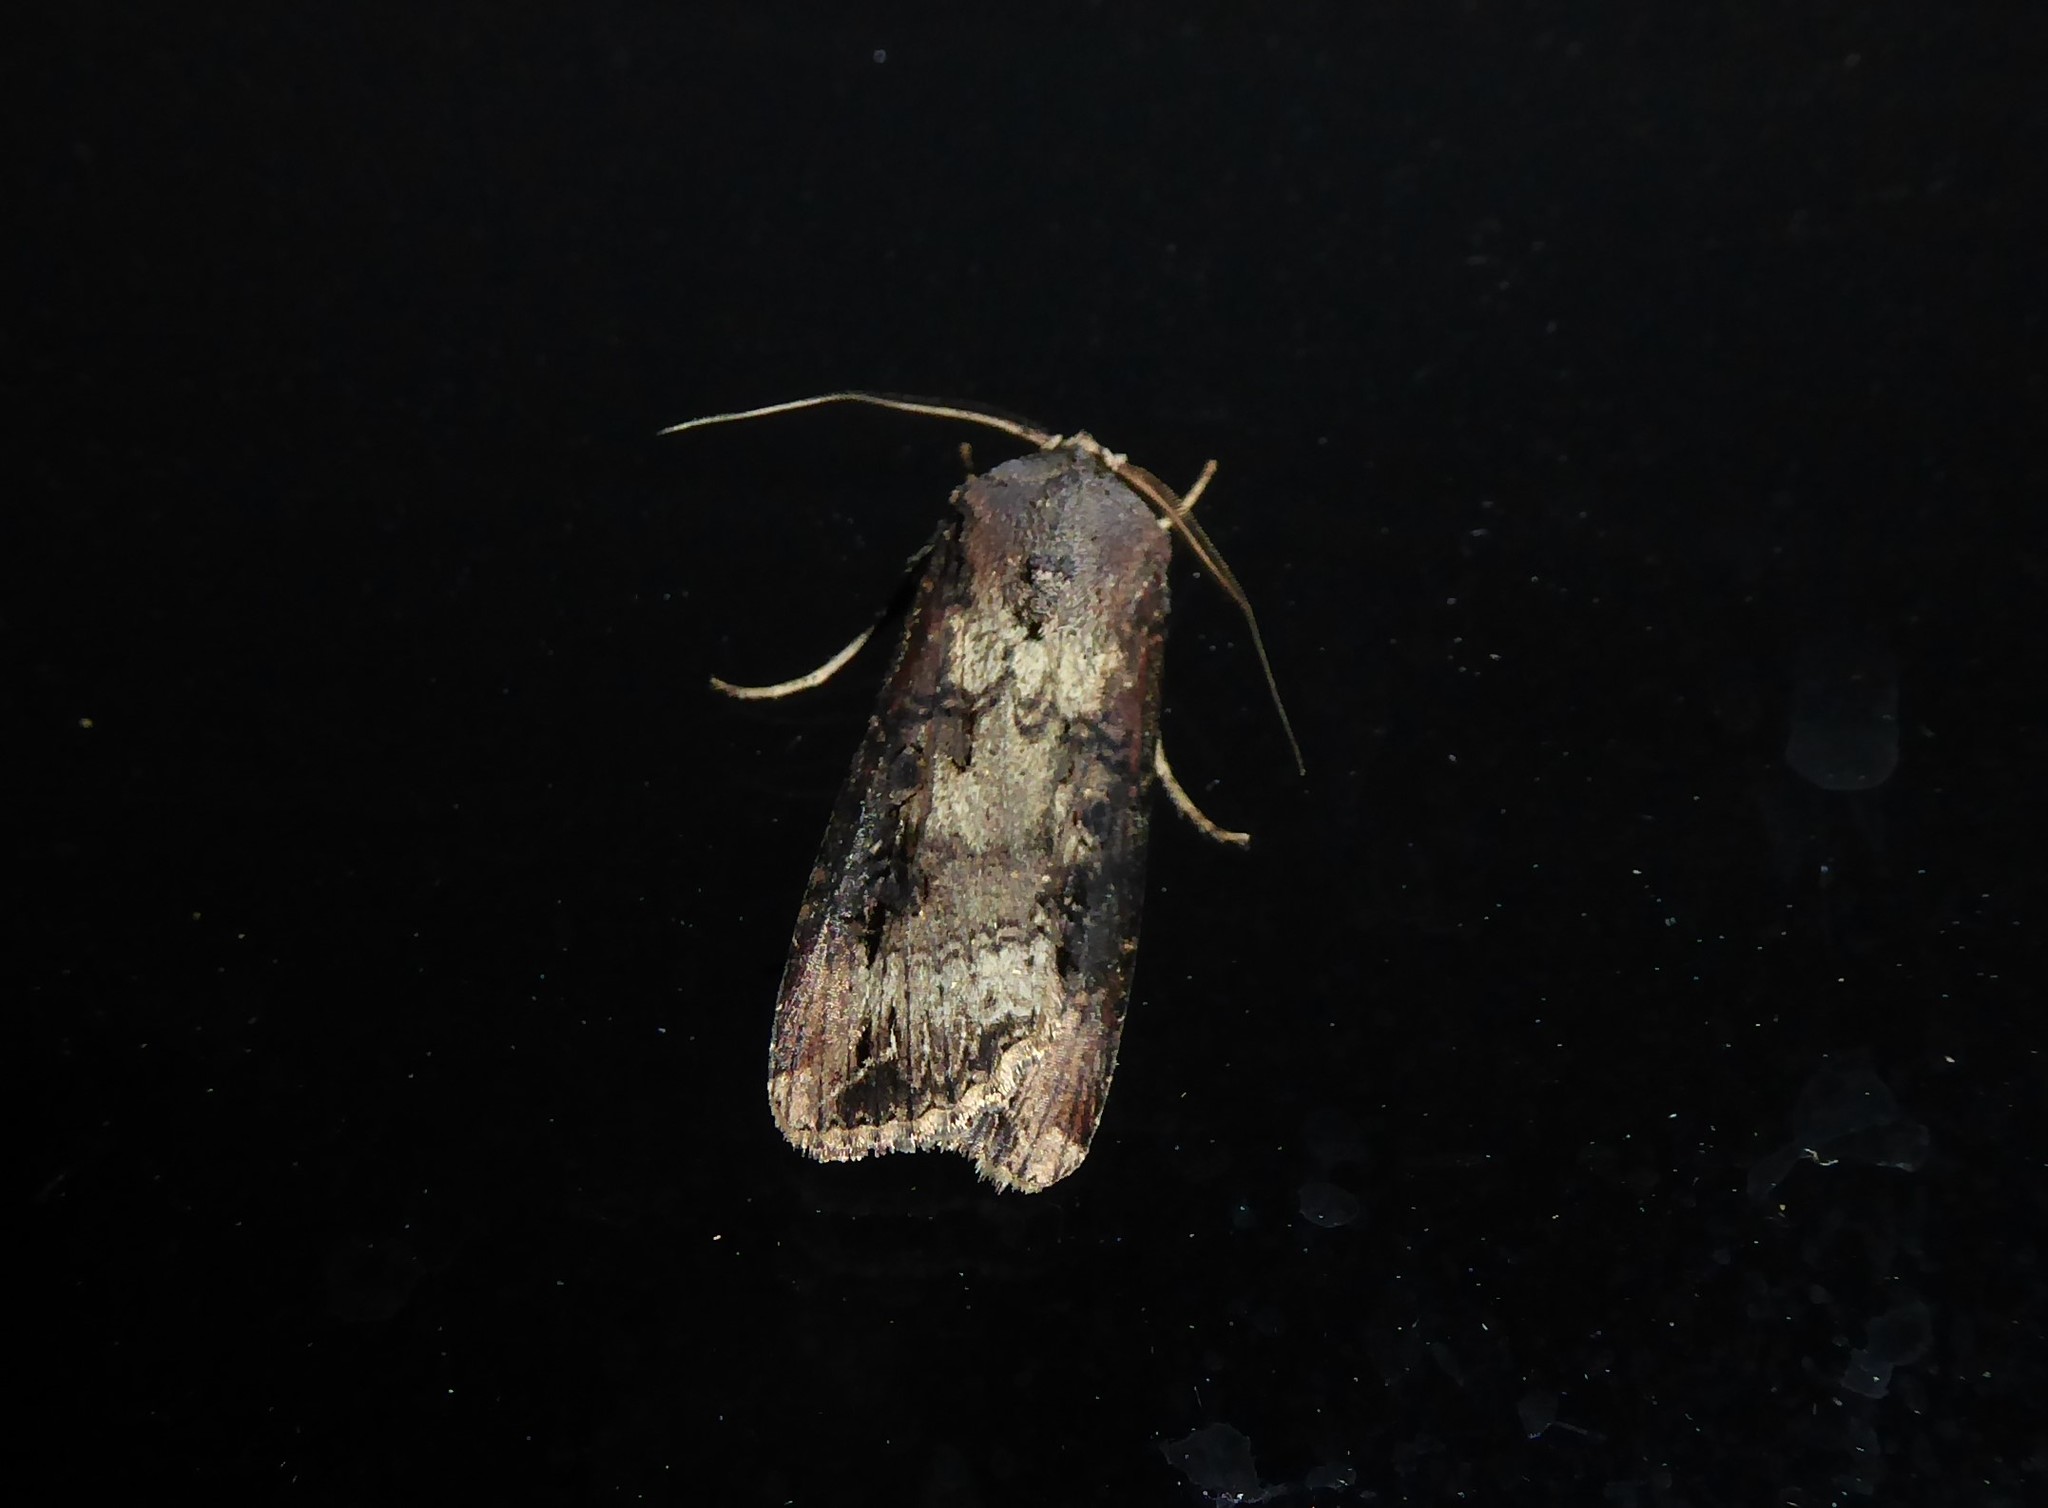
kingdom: Animalia
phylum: Arthropoda
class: Insecta
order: Lepidoptera
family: Noctuidae
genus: Agrotis
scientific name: Agrotis ipsilon
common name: Dark sword-grass
